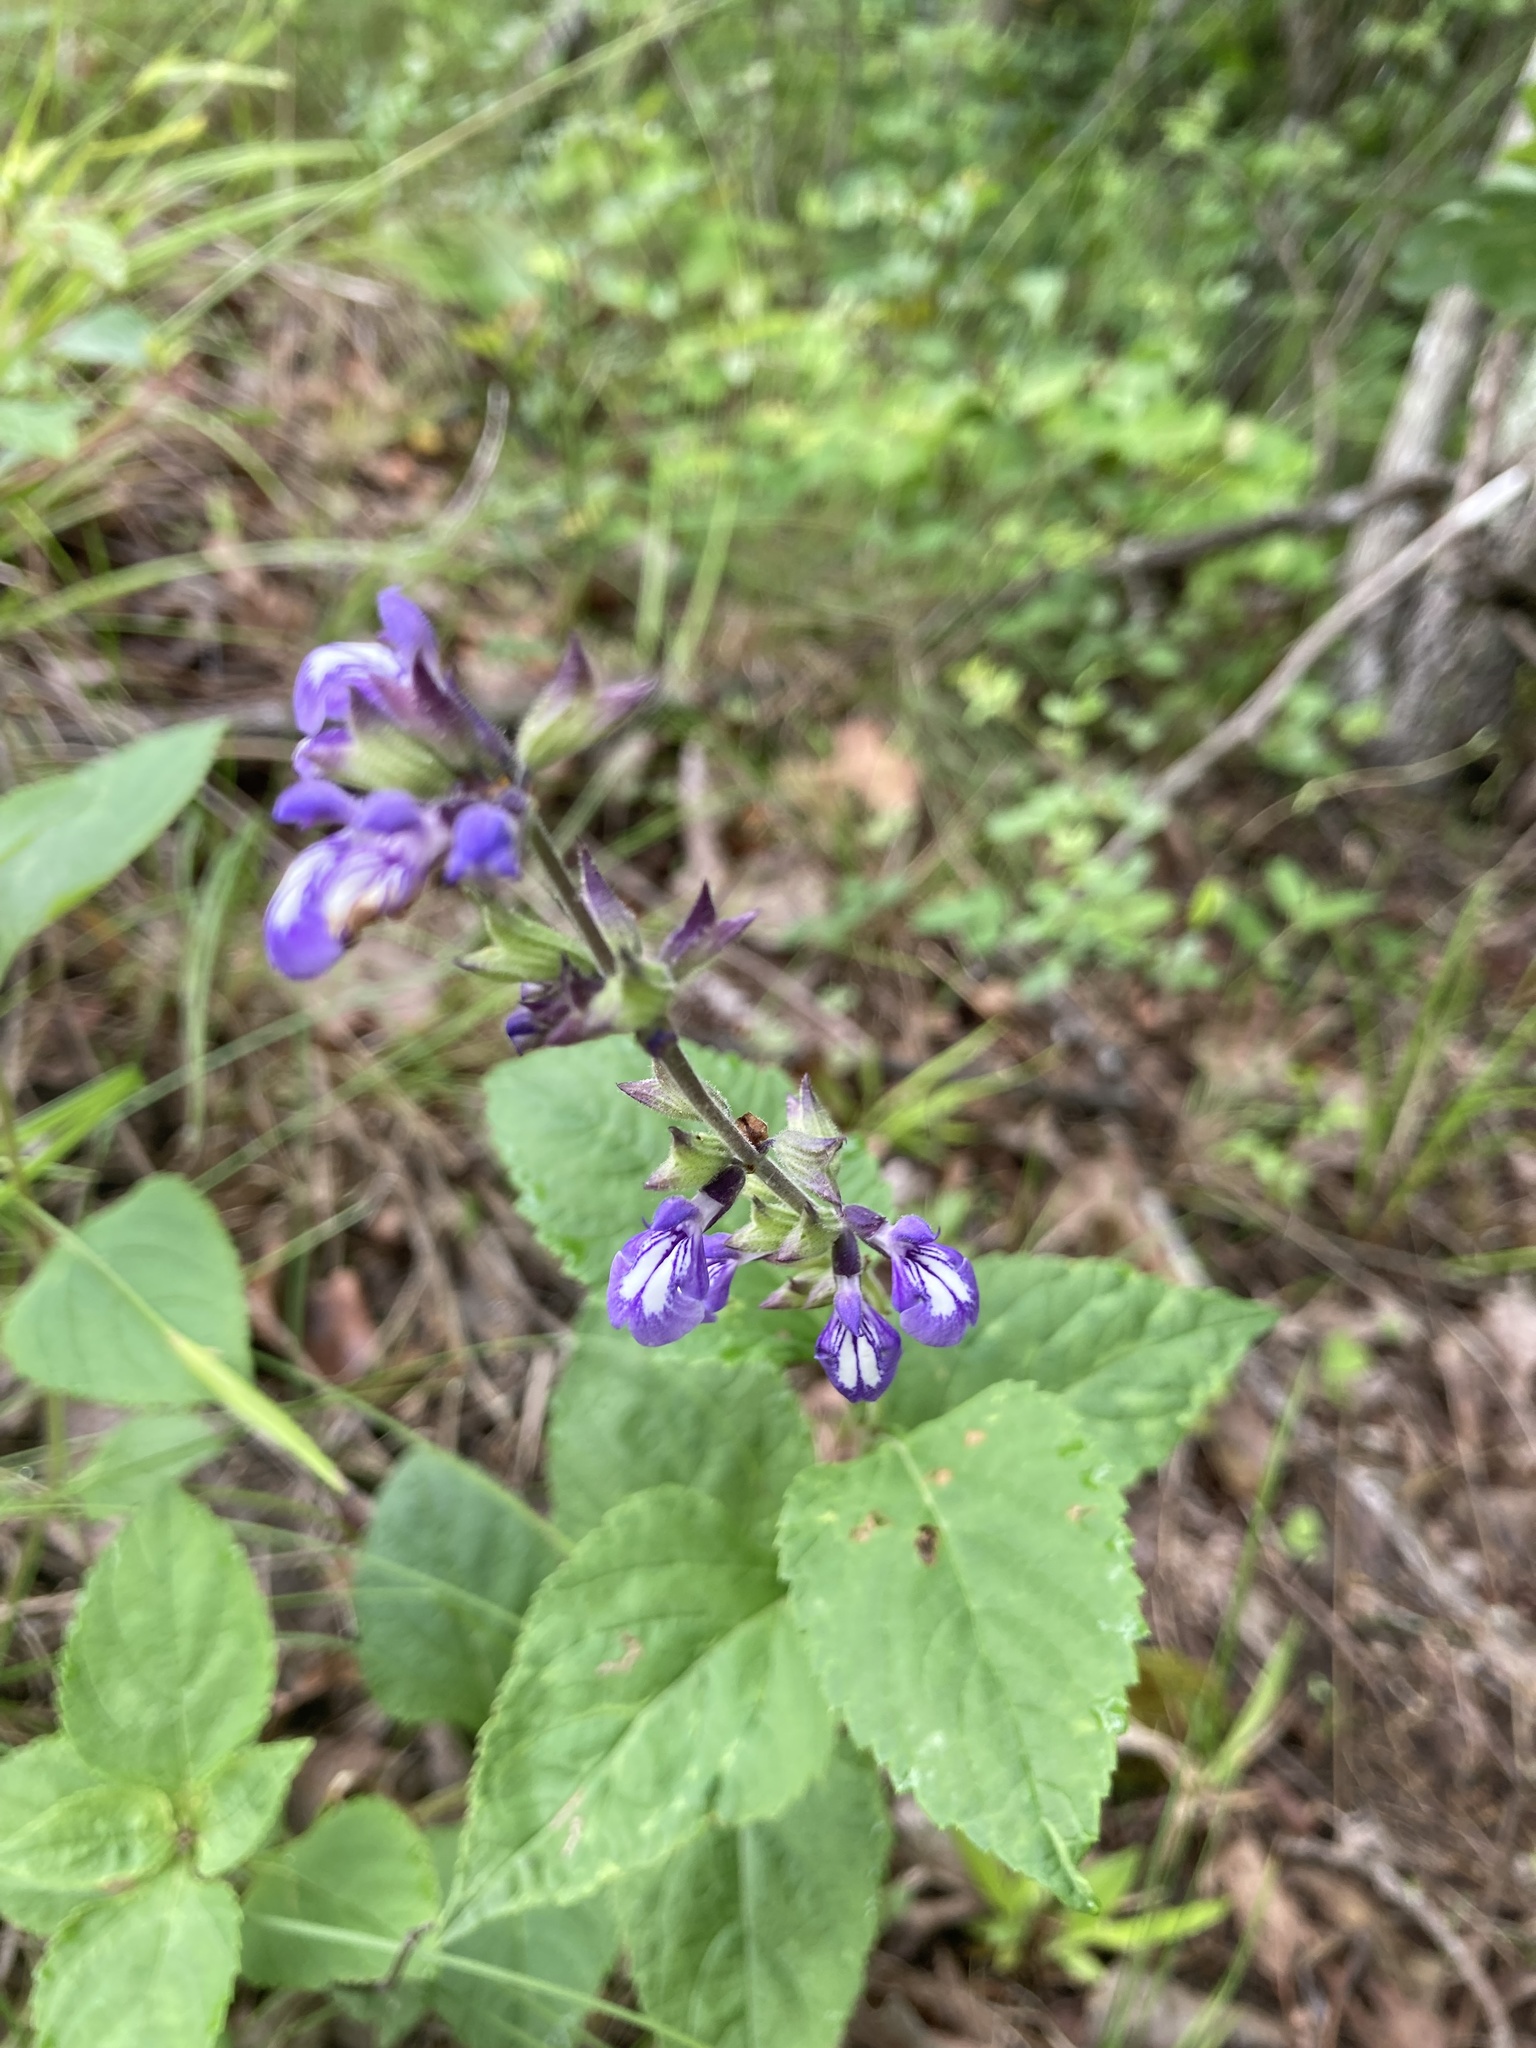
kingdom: Plantae
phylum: Tracheophyta
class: Magnoliopsida
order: Lamiales
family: Lamiaceae
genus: Salvia
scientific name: Salvia urticifolia
